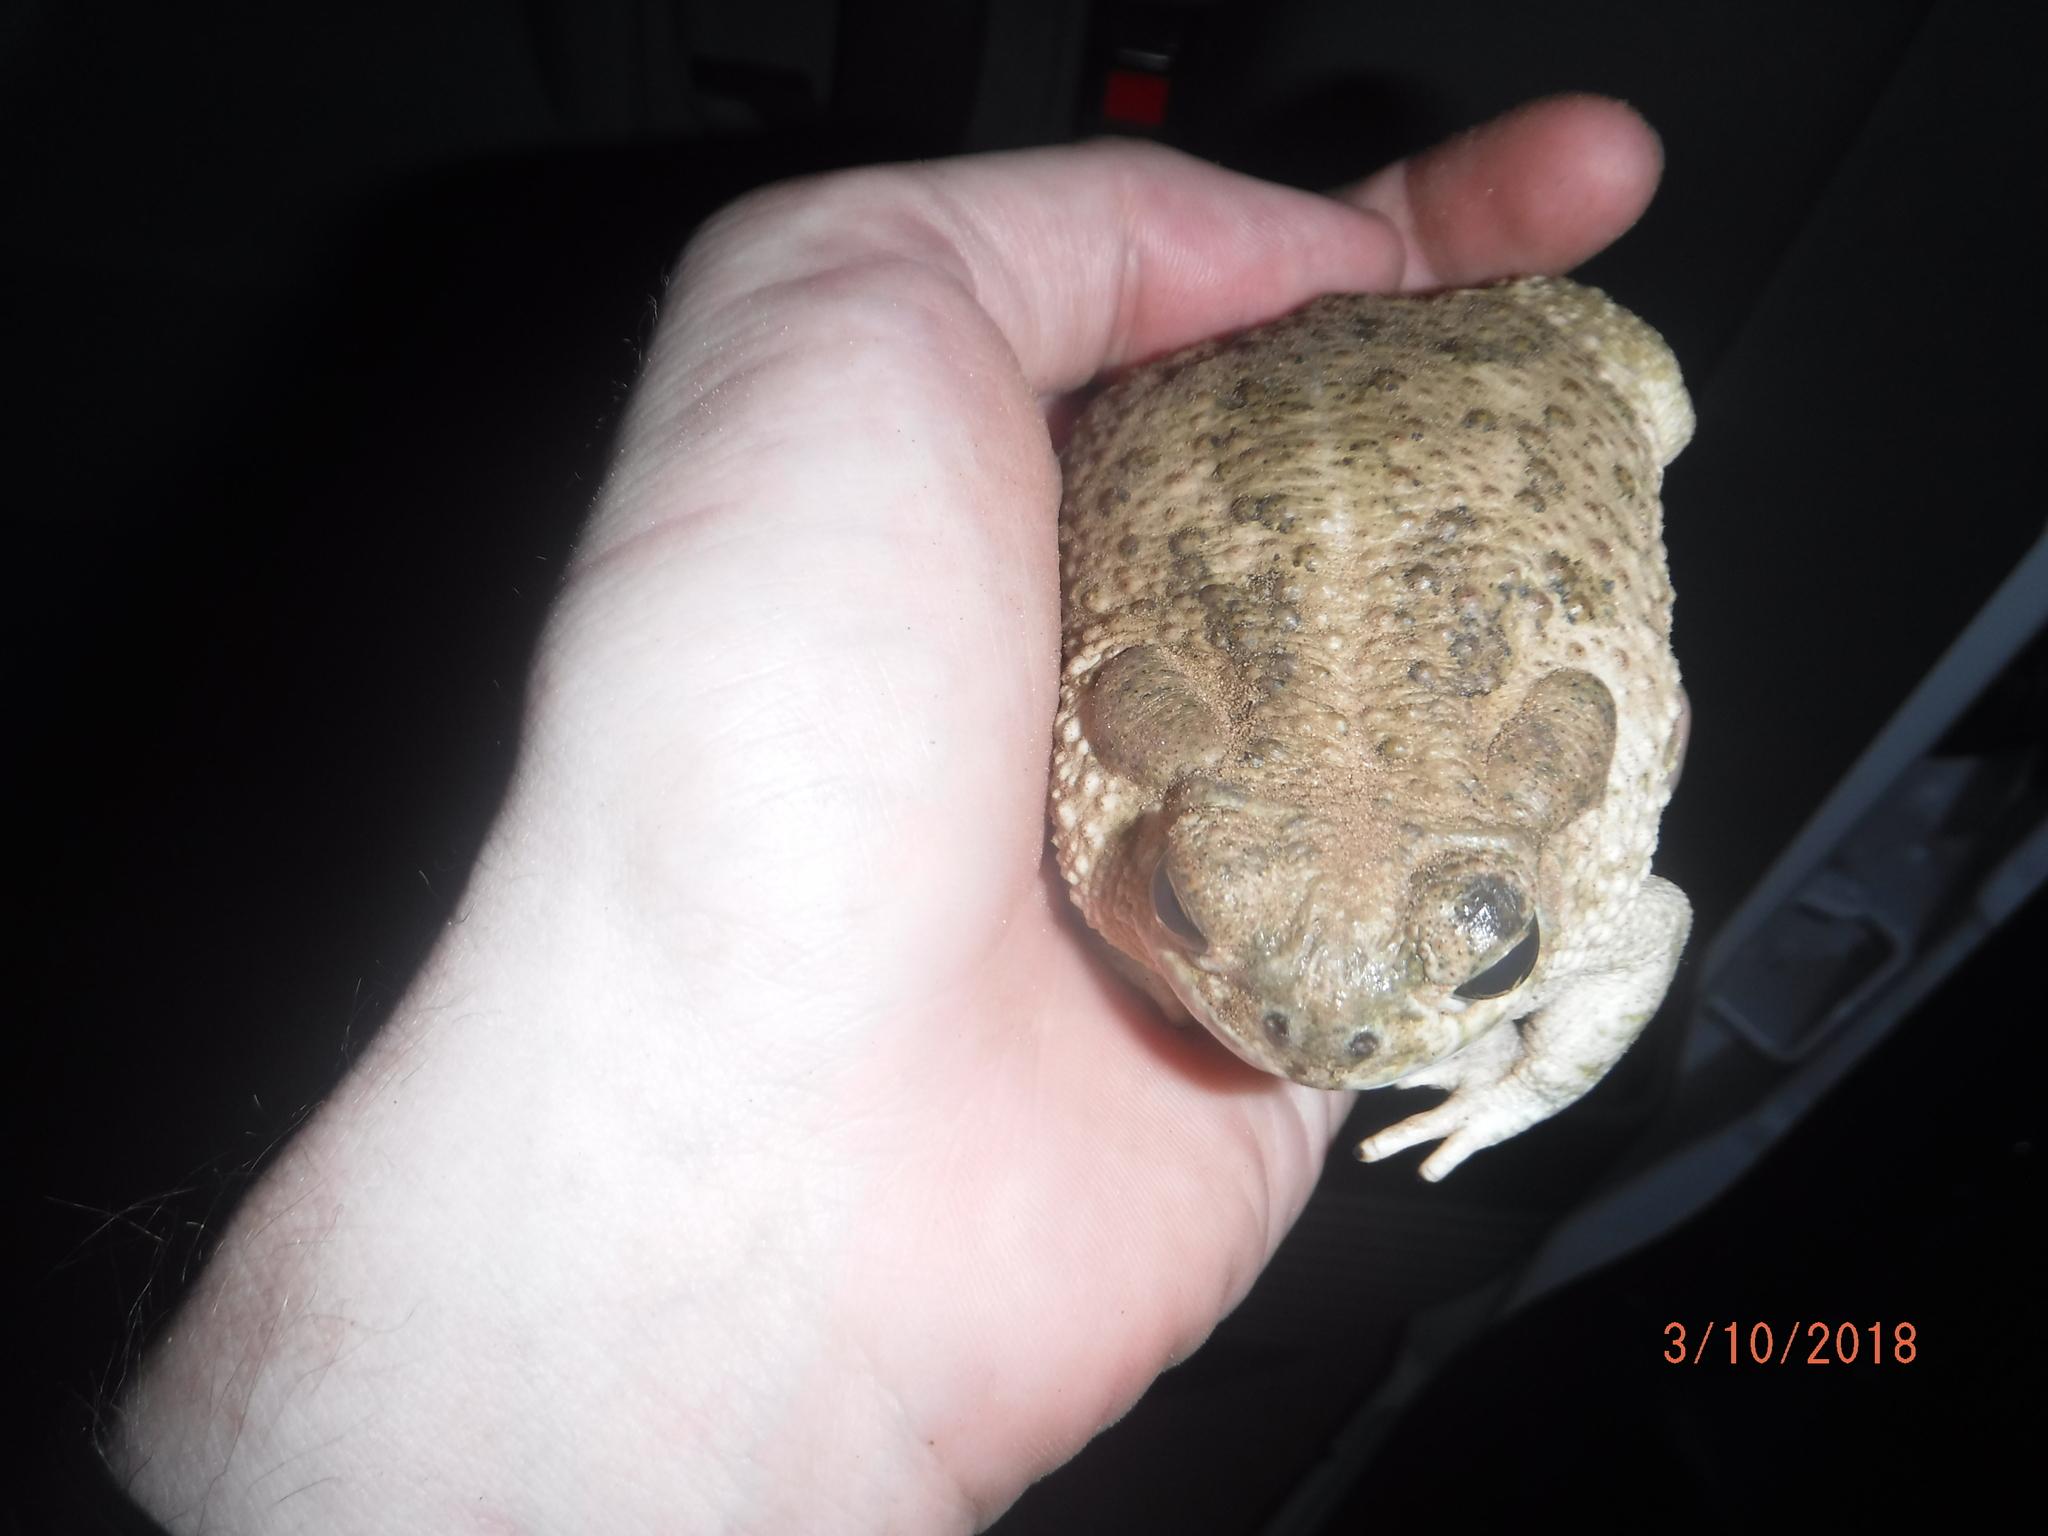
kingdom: Animalia
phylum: Chordata
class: Amphibia
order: Anura
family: Bufonidae
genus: Anaxyrus
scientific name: Anaxyrus speciosus
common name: Texas toad
